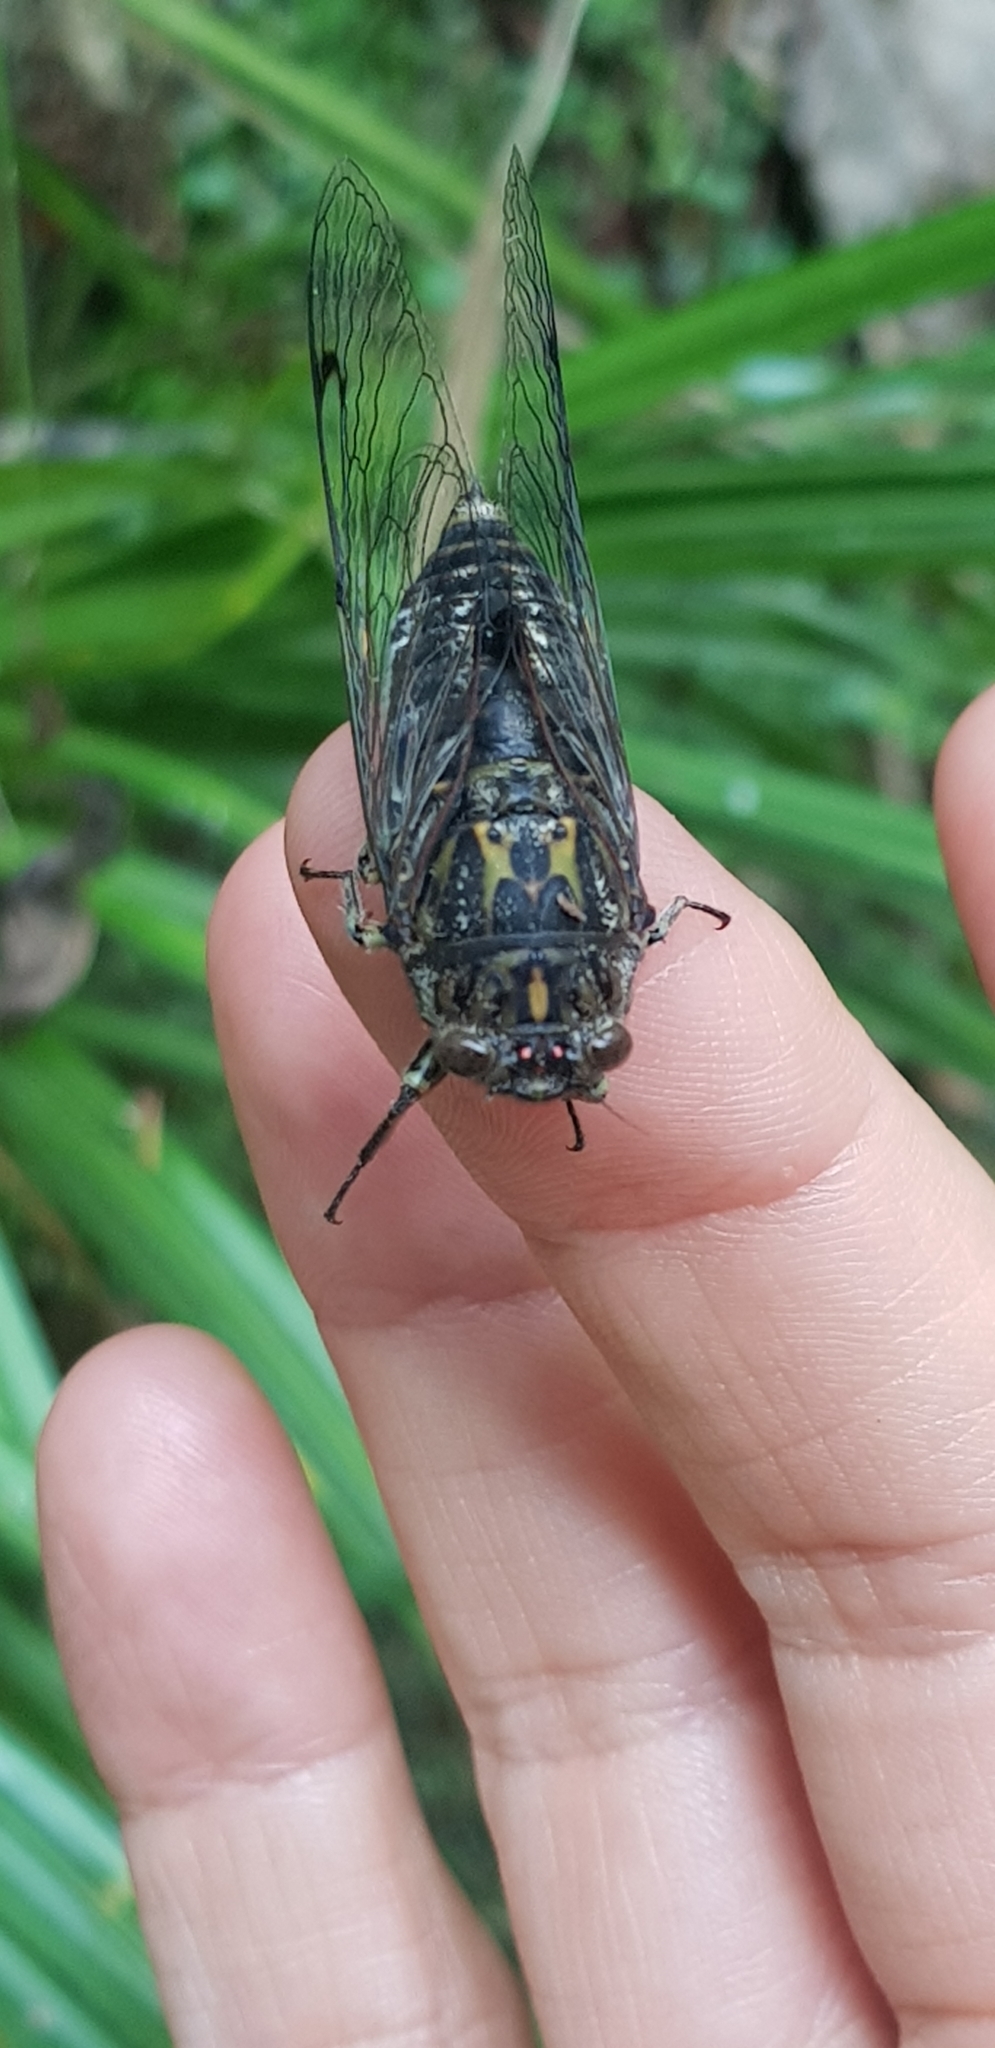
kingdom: Animalia
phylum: Arthropoda
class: Insecta
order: Hemiptera
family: Cicadidae
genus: Amphipsalta
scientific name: Amphipsalta cingulata
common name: Clapping cicada
